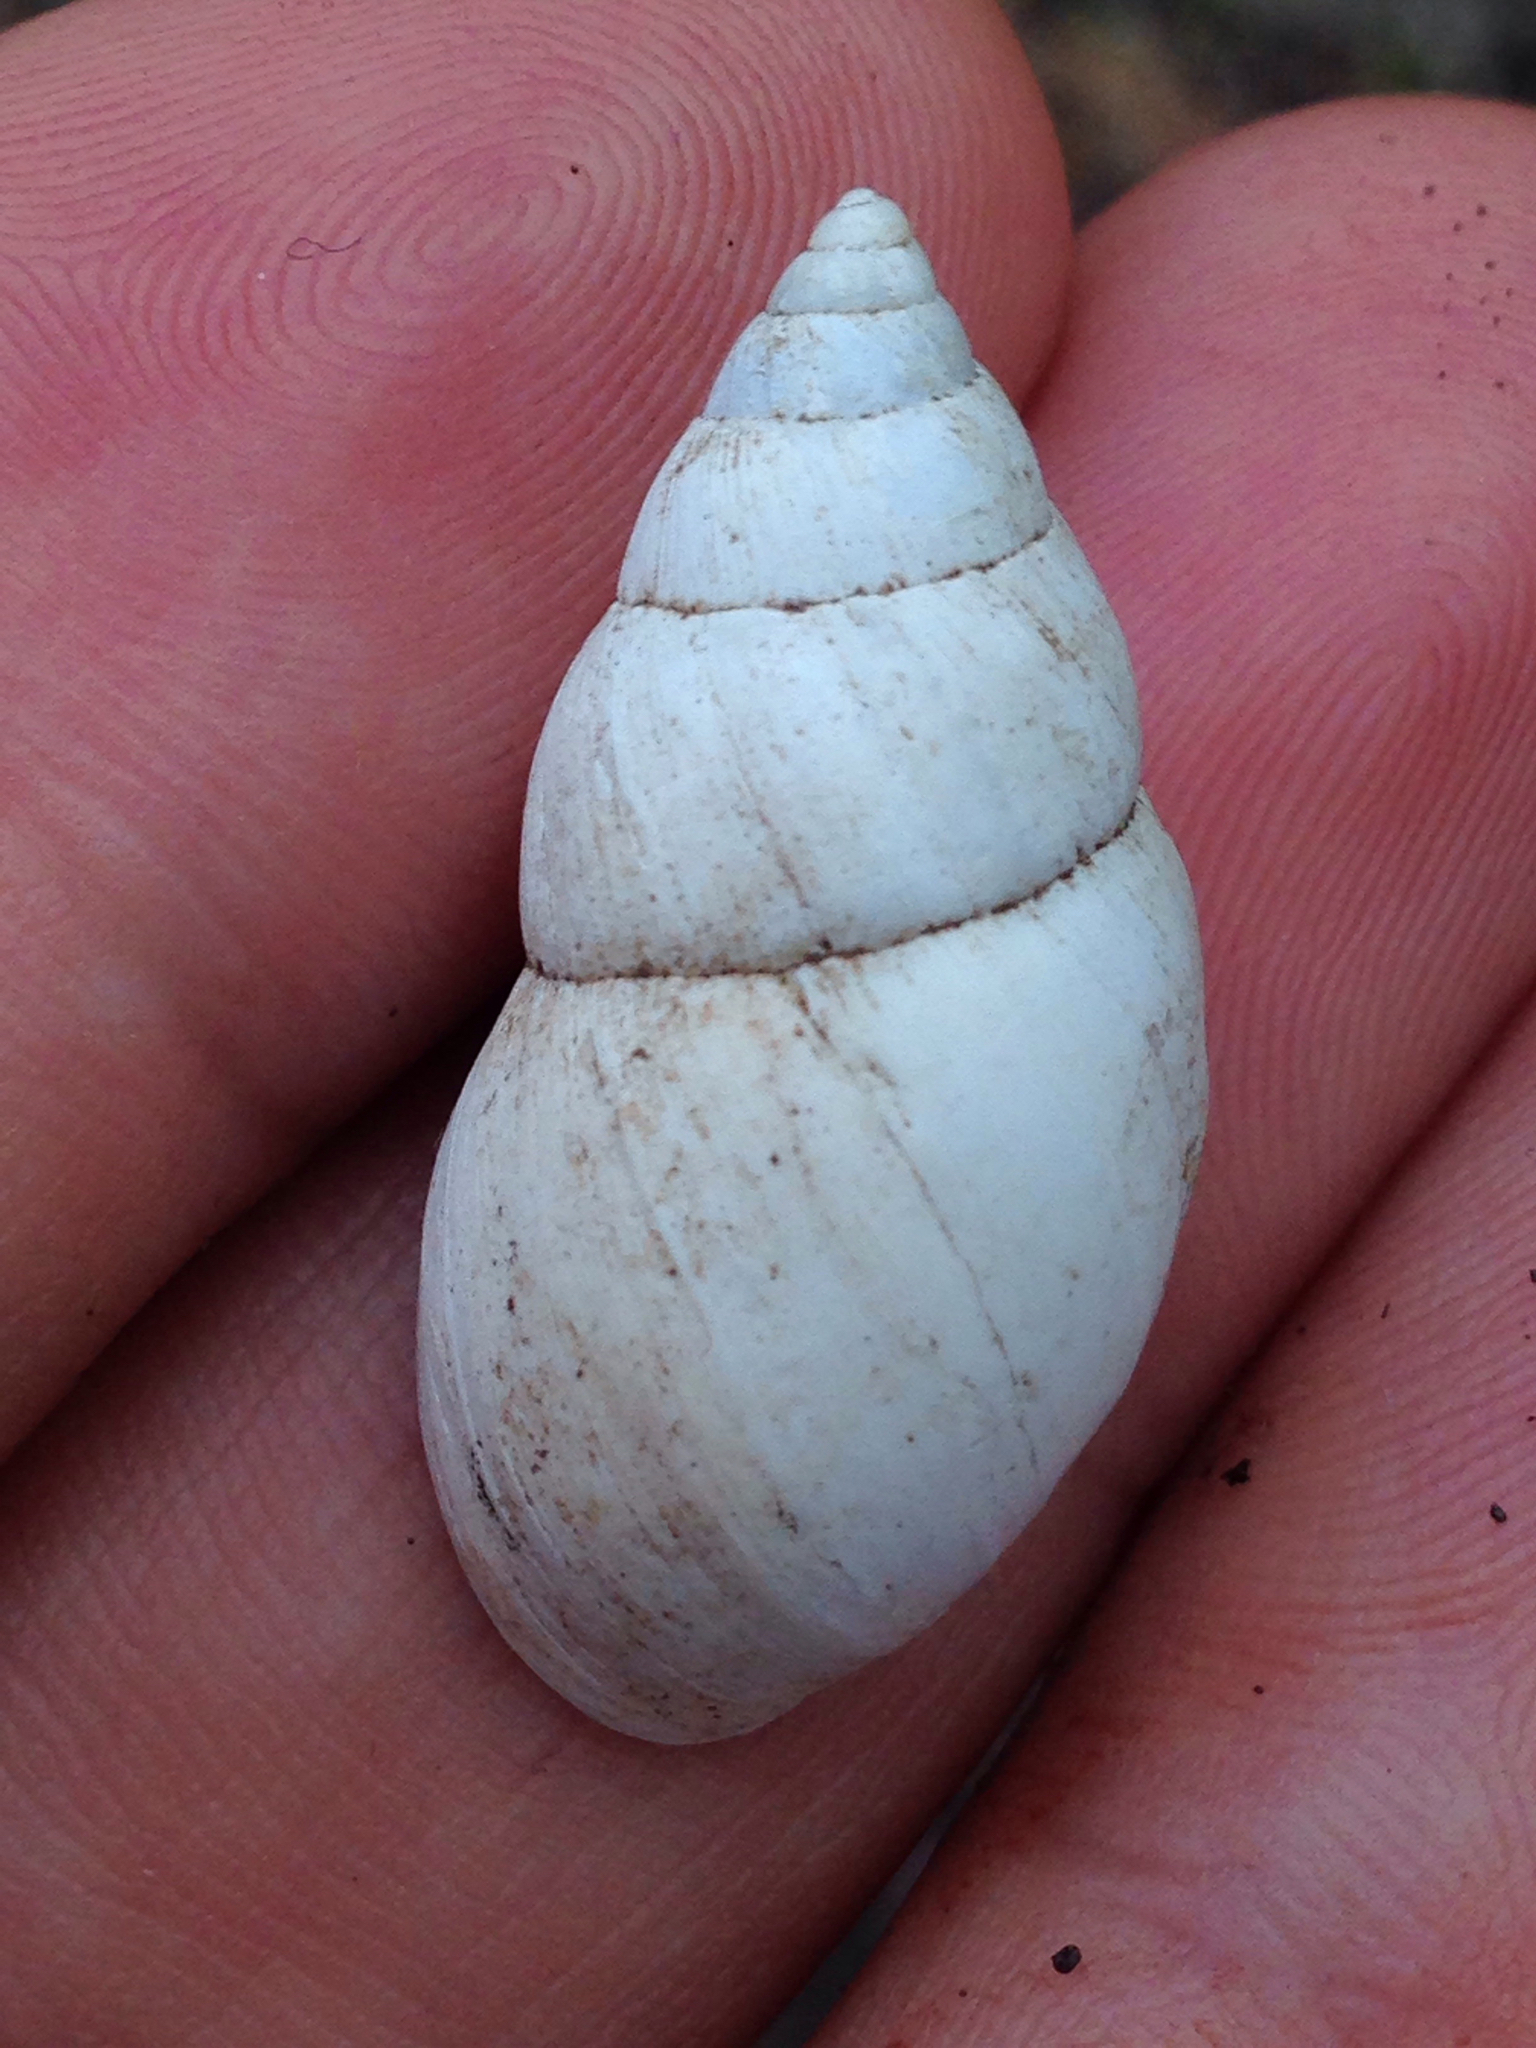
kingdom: Animalia
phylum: Mollusca
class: Gastropoda
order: Stylommatophora
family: Bulimulidae
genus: Rabdotus
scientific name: Rabdotus alternatus
